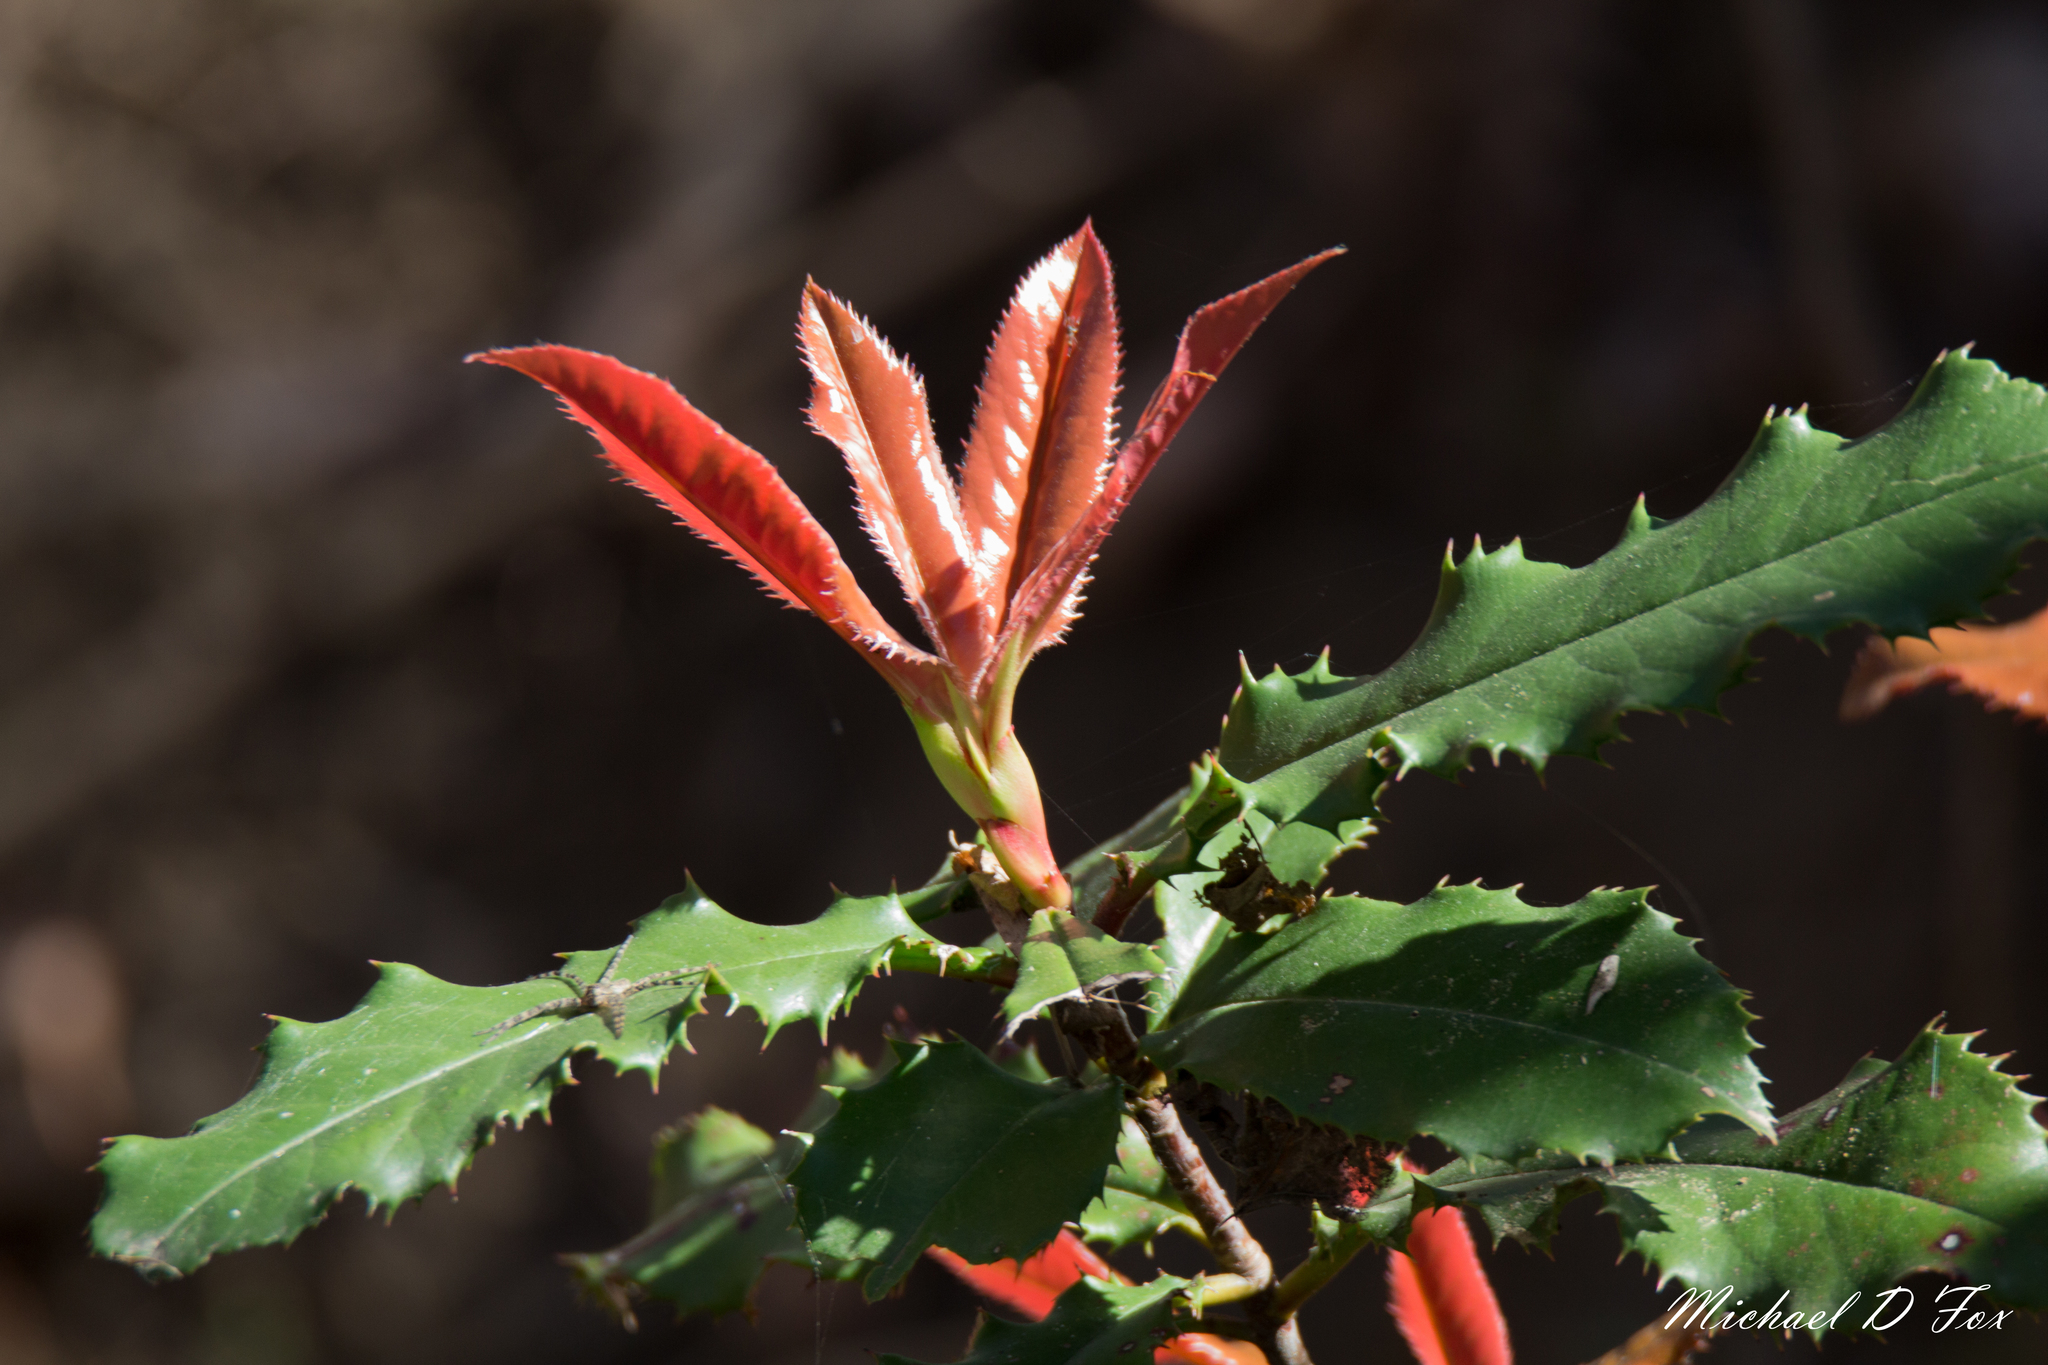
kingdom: Plantae
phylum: Tracheophyta
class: Magnoliopsida
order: Rosales
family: Rosaceae
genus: Photinia
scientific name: Photinia serratifolia
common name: Taiwanese photinia
